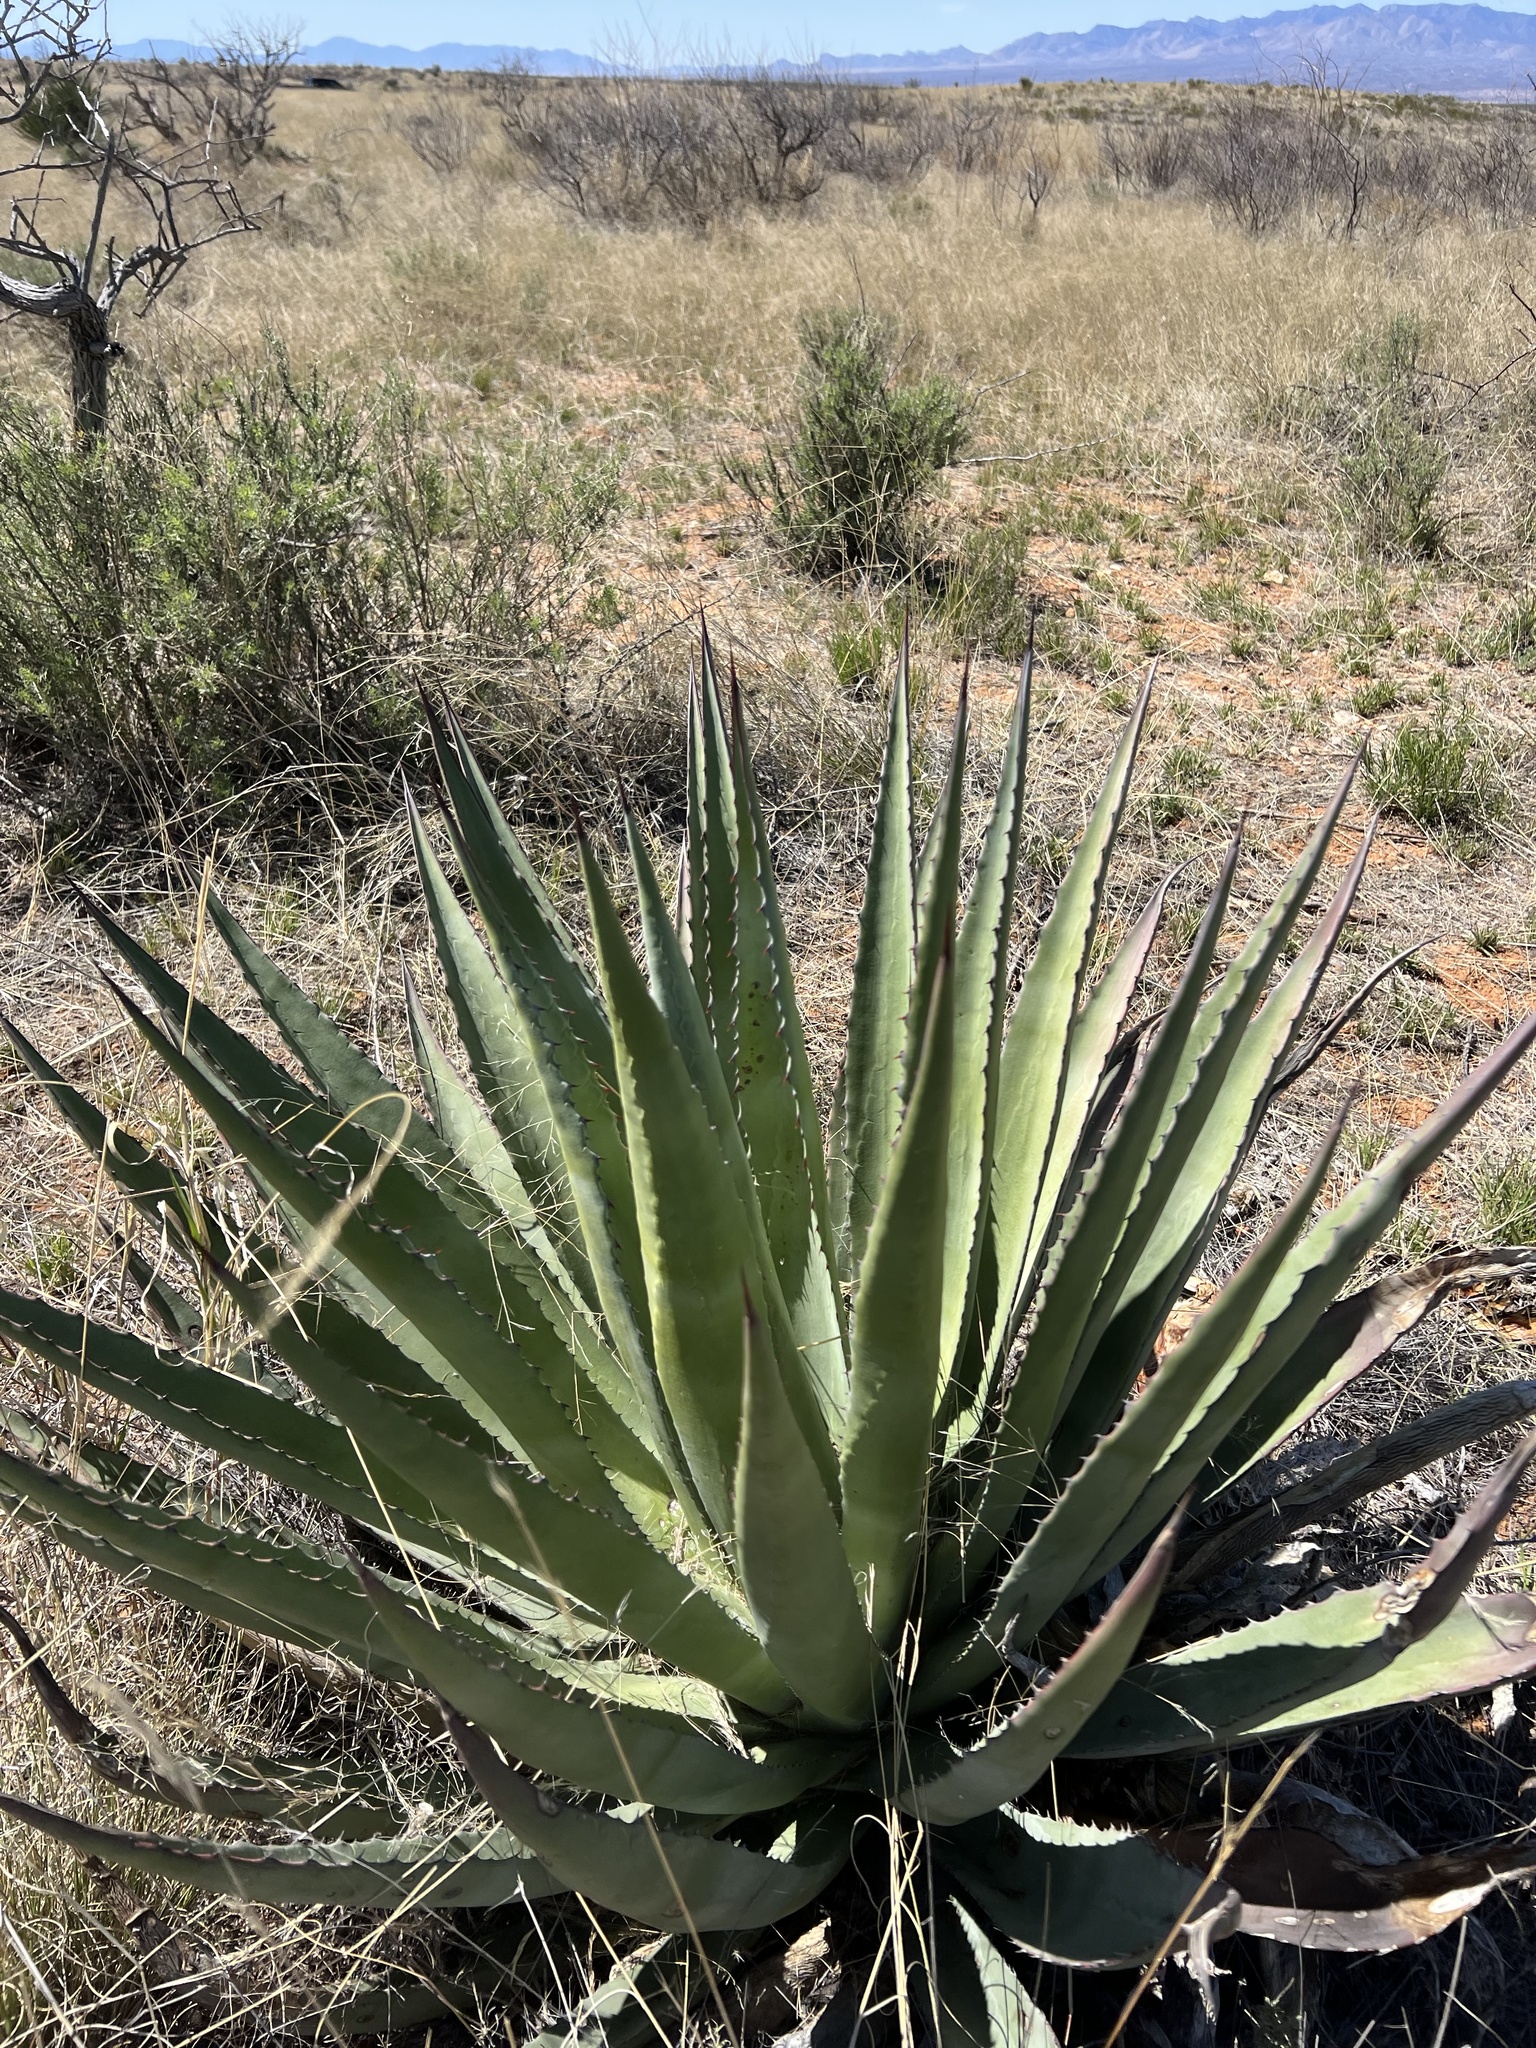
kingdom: Plantae
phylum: Tracheophyta
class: Liliopsida
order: Asparagales
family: Asparagaceae
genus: Agave
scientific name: Agave palmeri
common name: Palmer agave
